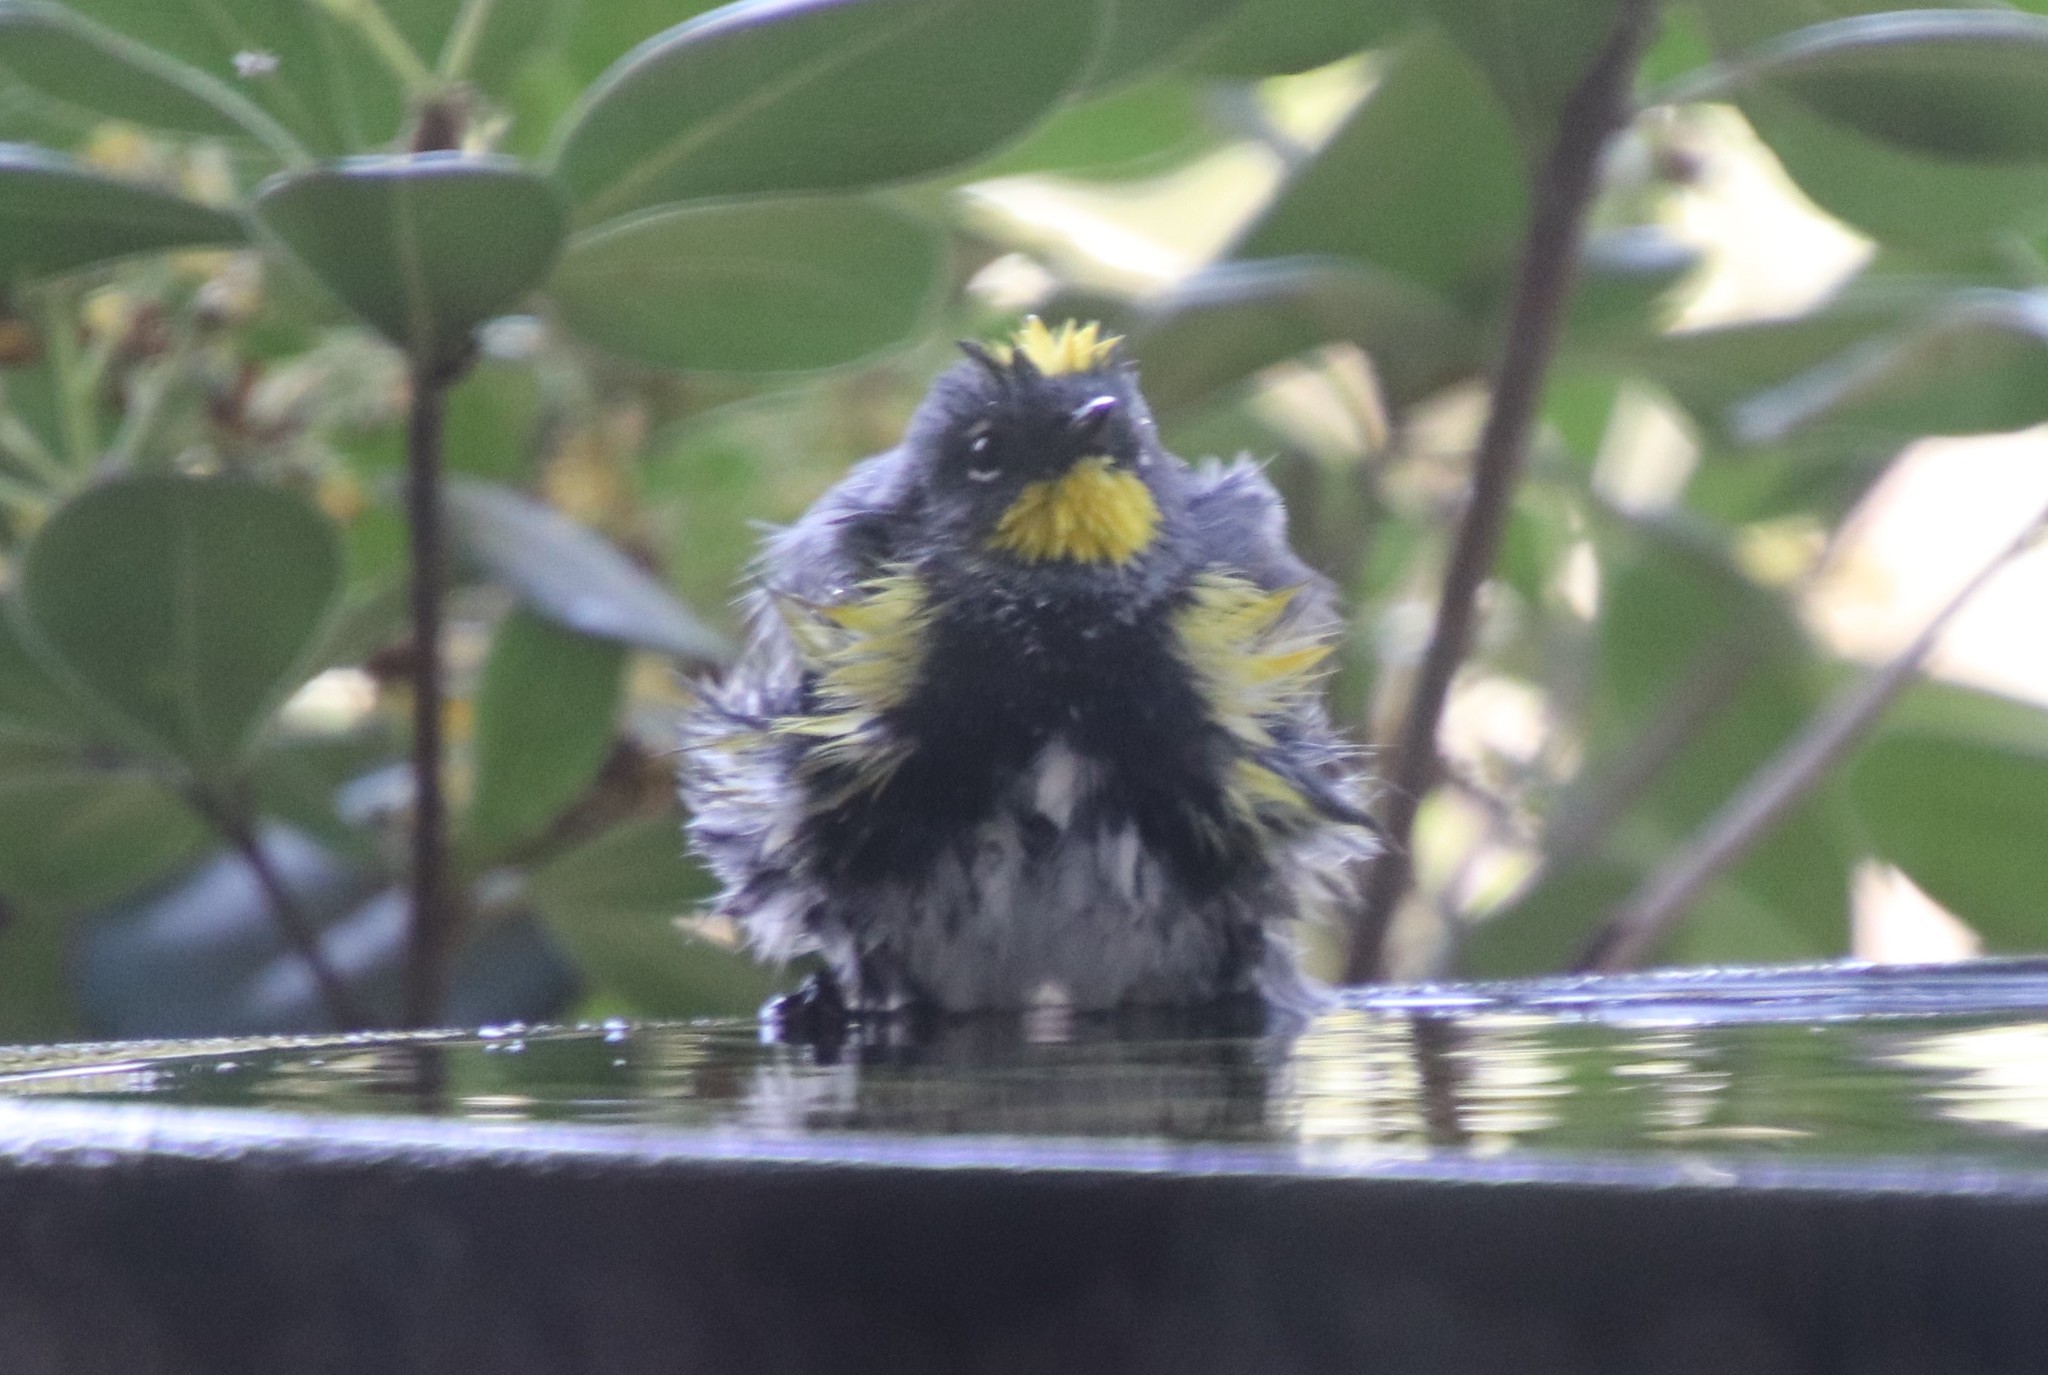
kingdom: Animalia
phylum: Chordata
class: Aves
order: Passeriformes
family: Parulidae
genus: Setophaga
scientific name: Setophaga auduboni
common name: Audubon's warbler
